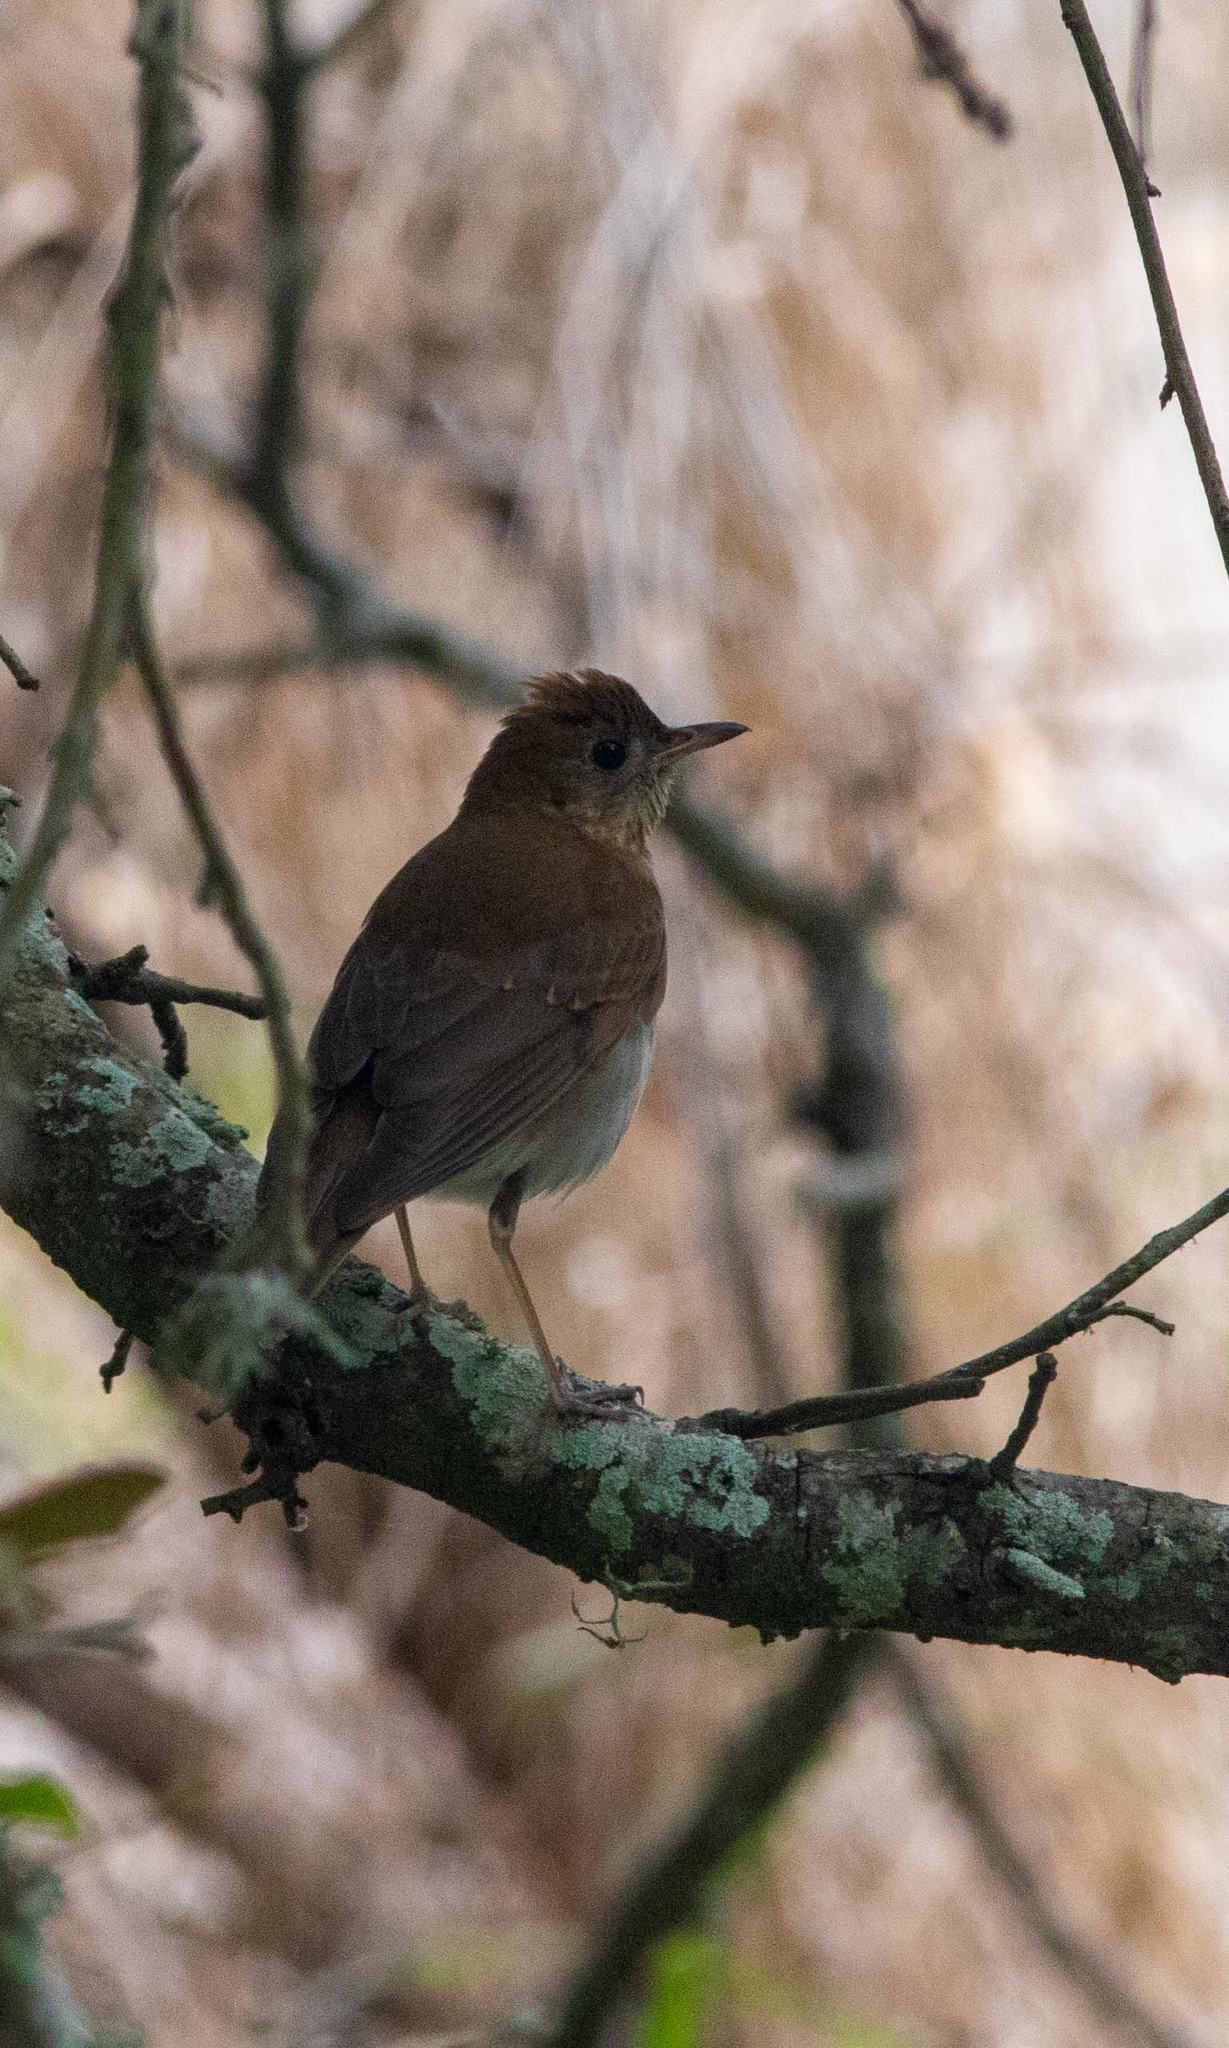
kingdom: Animalia
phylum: Chordata
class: Aves
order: Passeriformes
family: Turdidae
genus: Catharus
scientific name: Catharus fuscescens
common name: Veery
